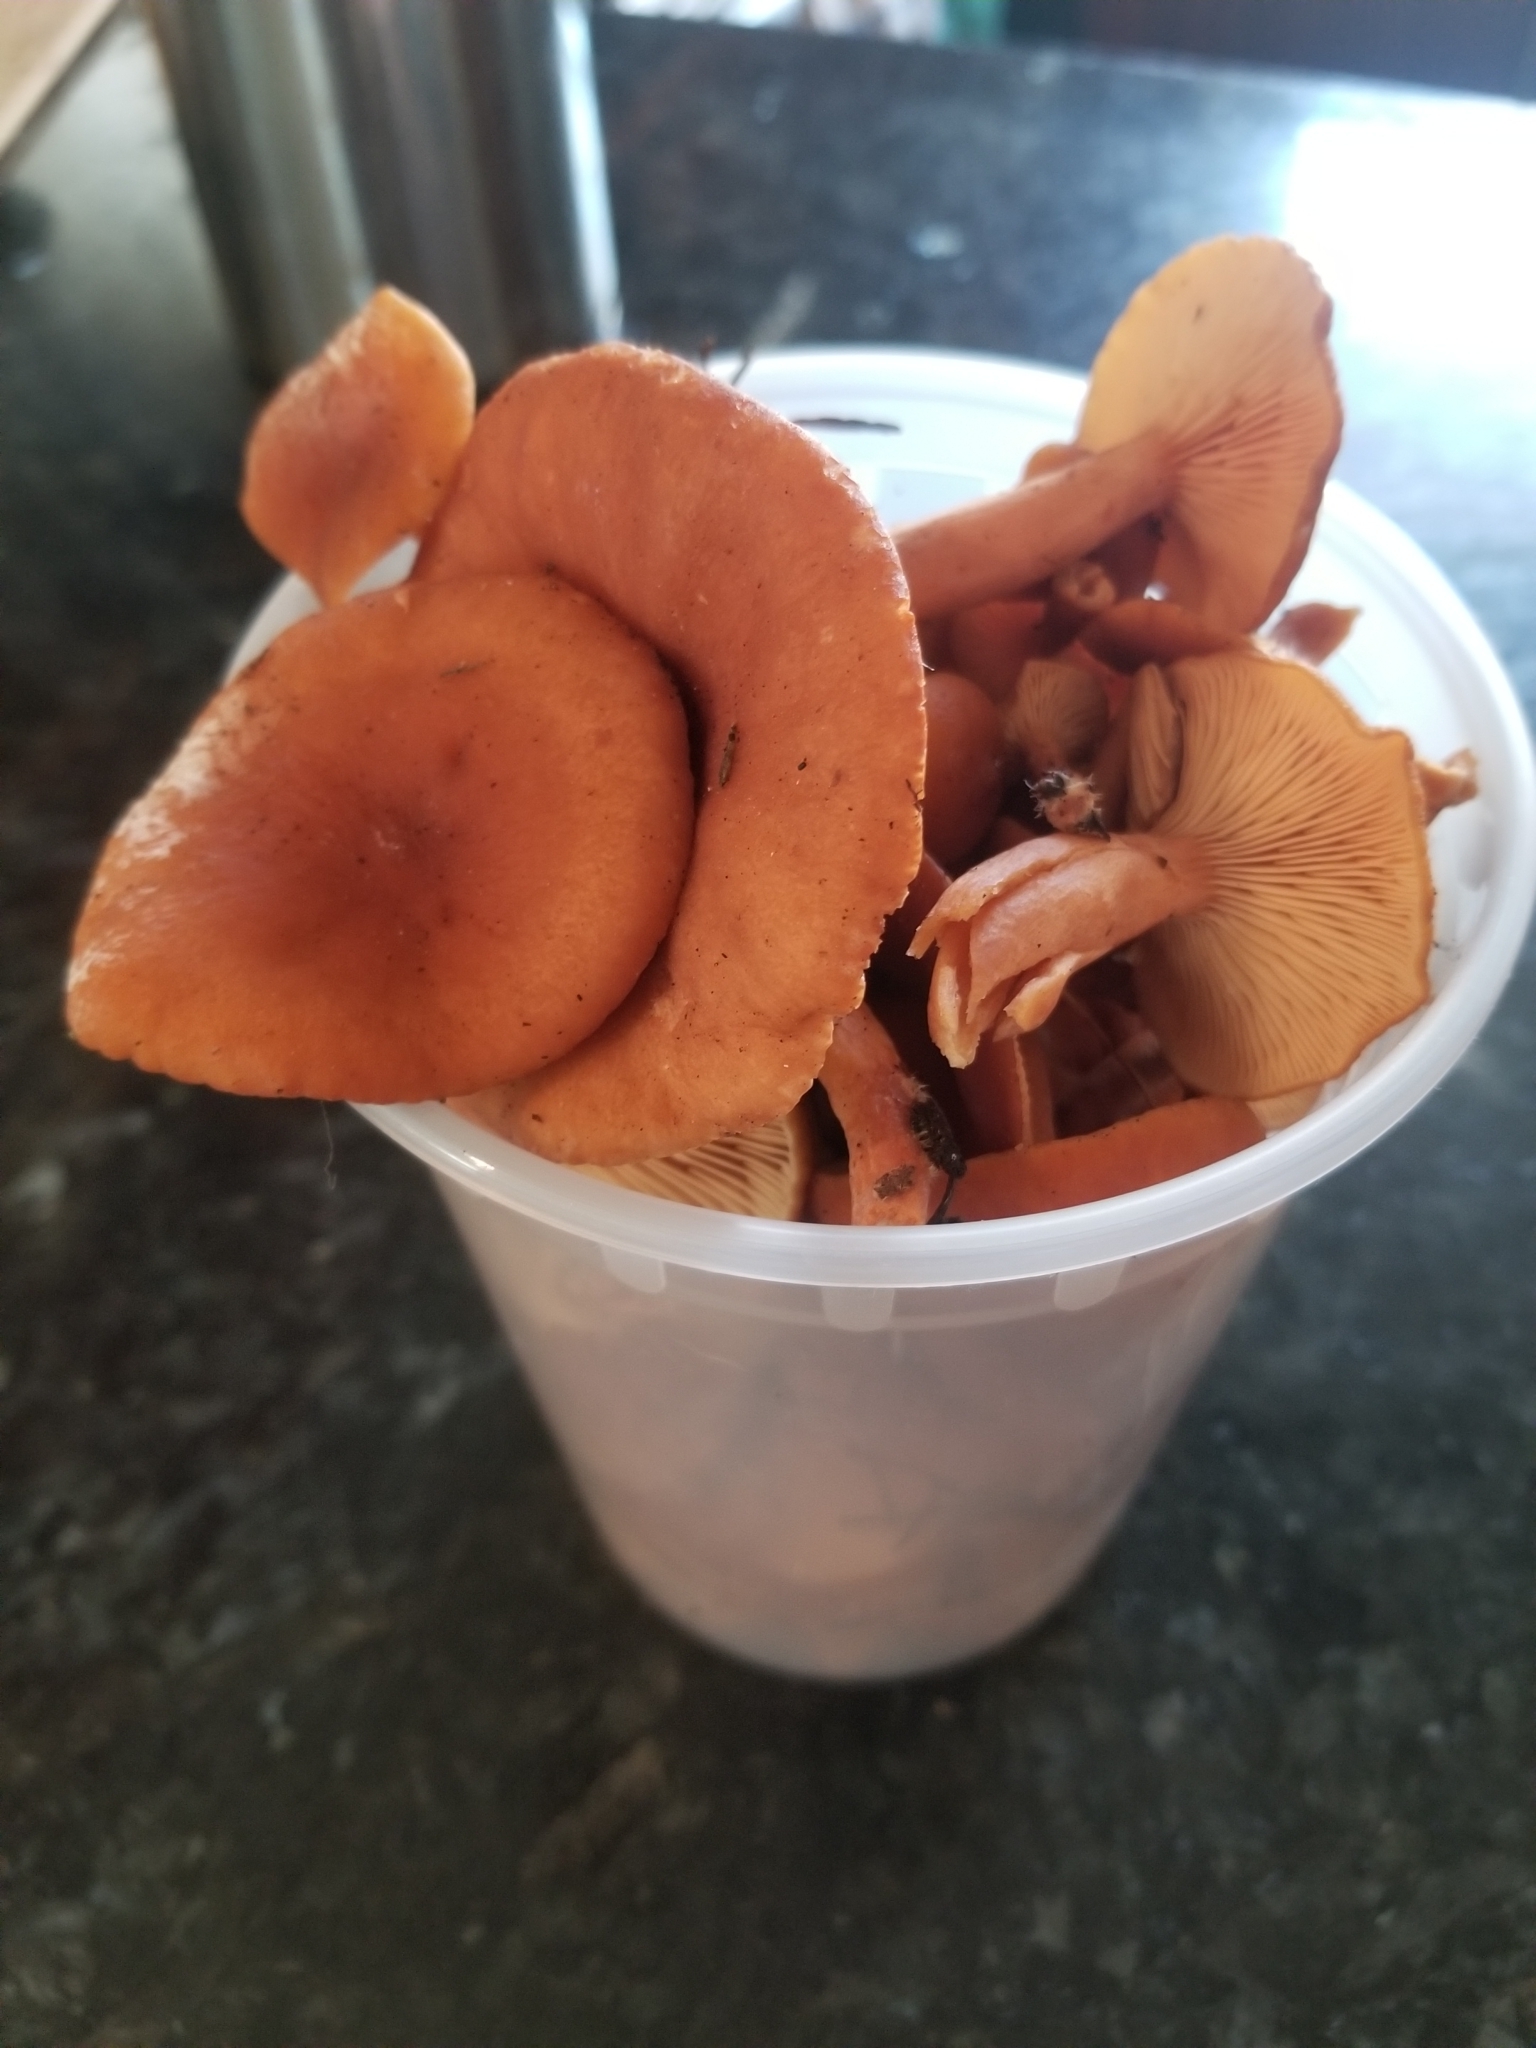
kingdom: Fungi
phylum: Basidiomycota
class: Agaricomycetes
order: Russulales
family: Russulaceae
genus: Lactarius
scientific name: Lactarius rubidus
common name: Candy cap
